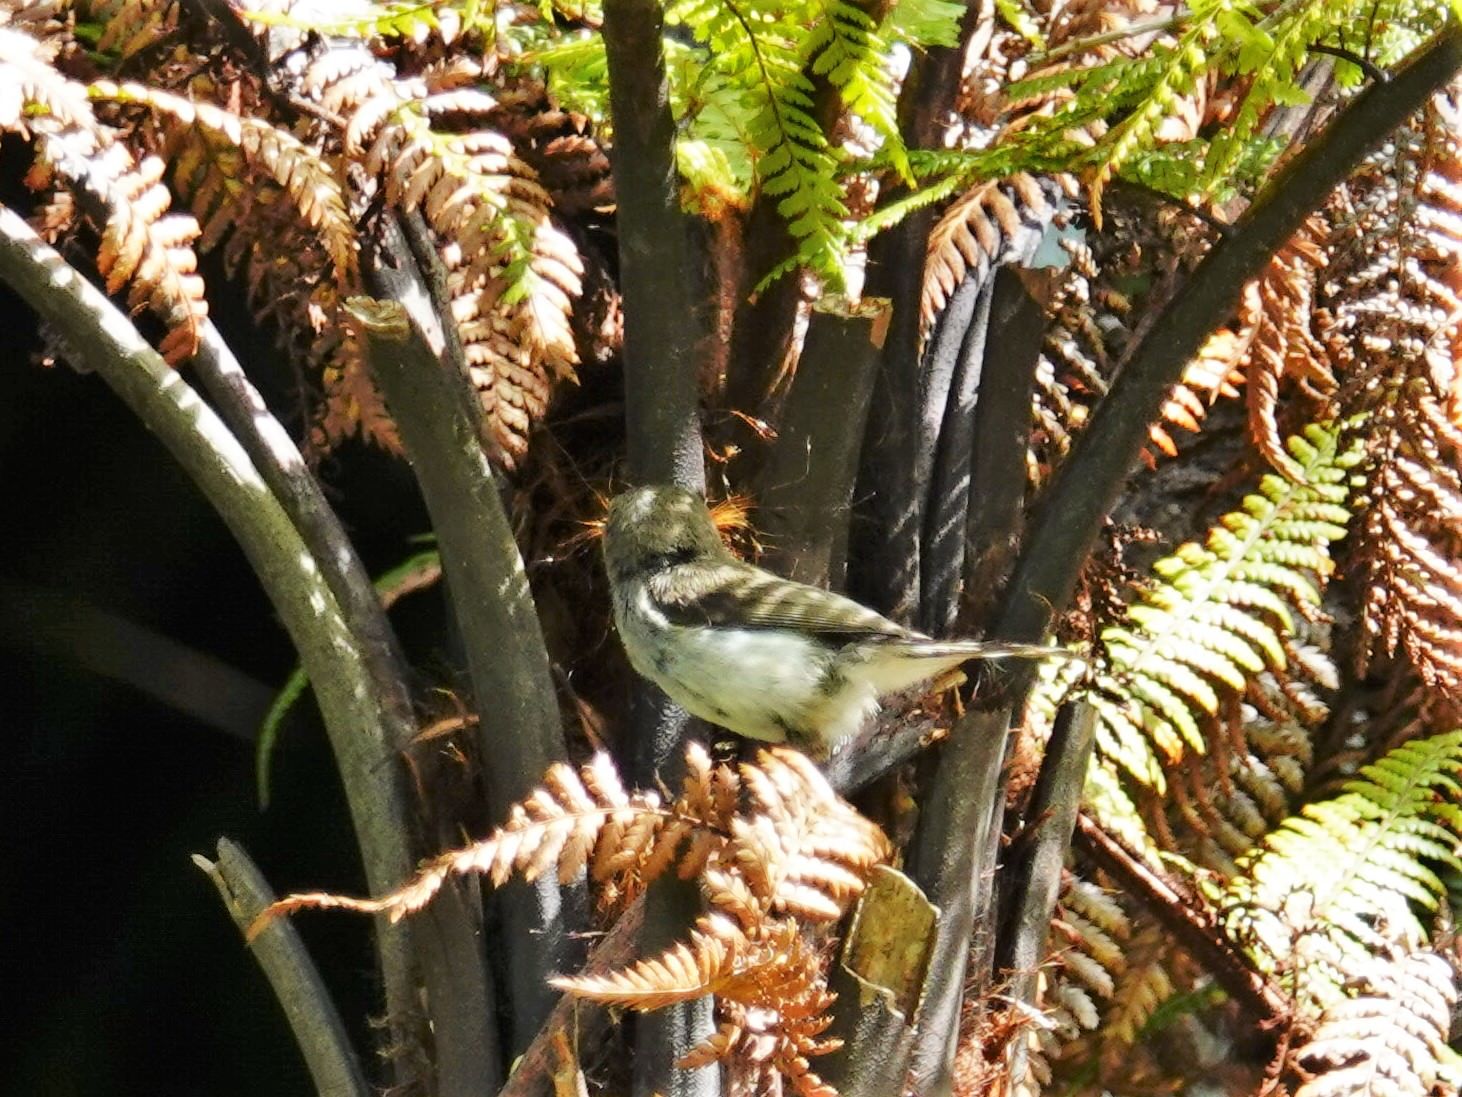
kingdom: Animalia
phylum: Chordata
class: Aves
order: Passeriformes
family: Acanthizidae
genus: Gerygone
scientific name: Gerygone igata
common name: Grey gerygone
